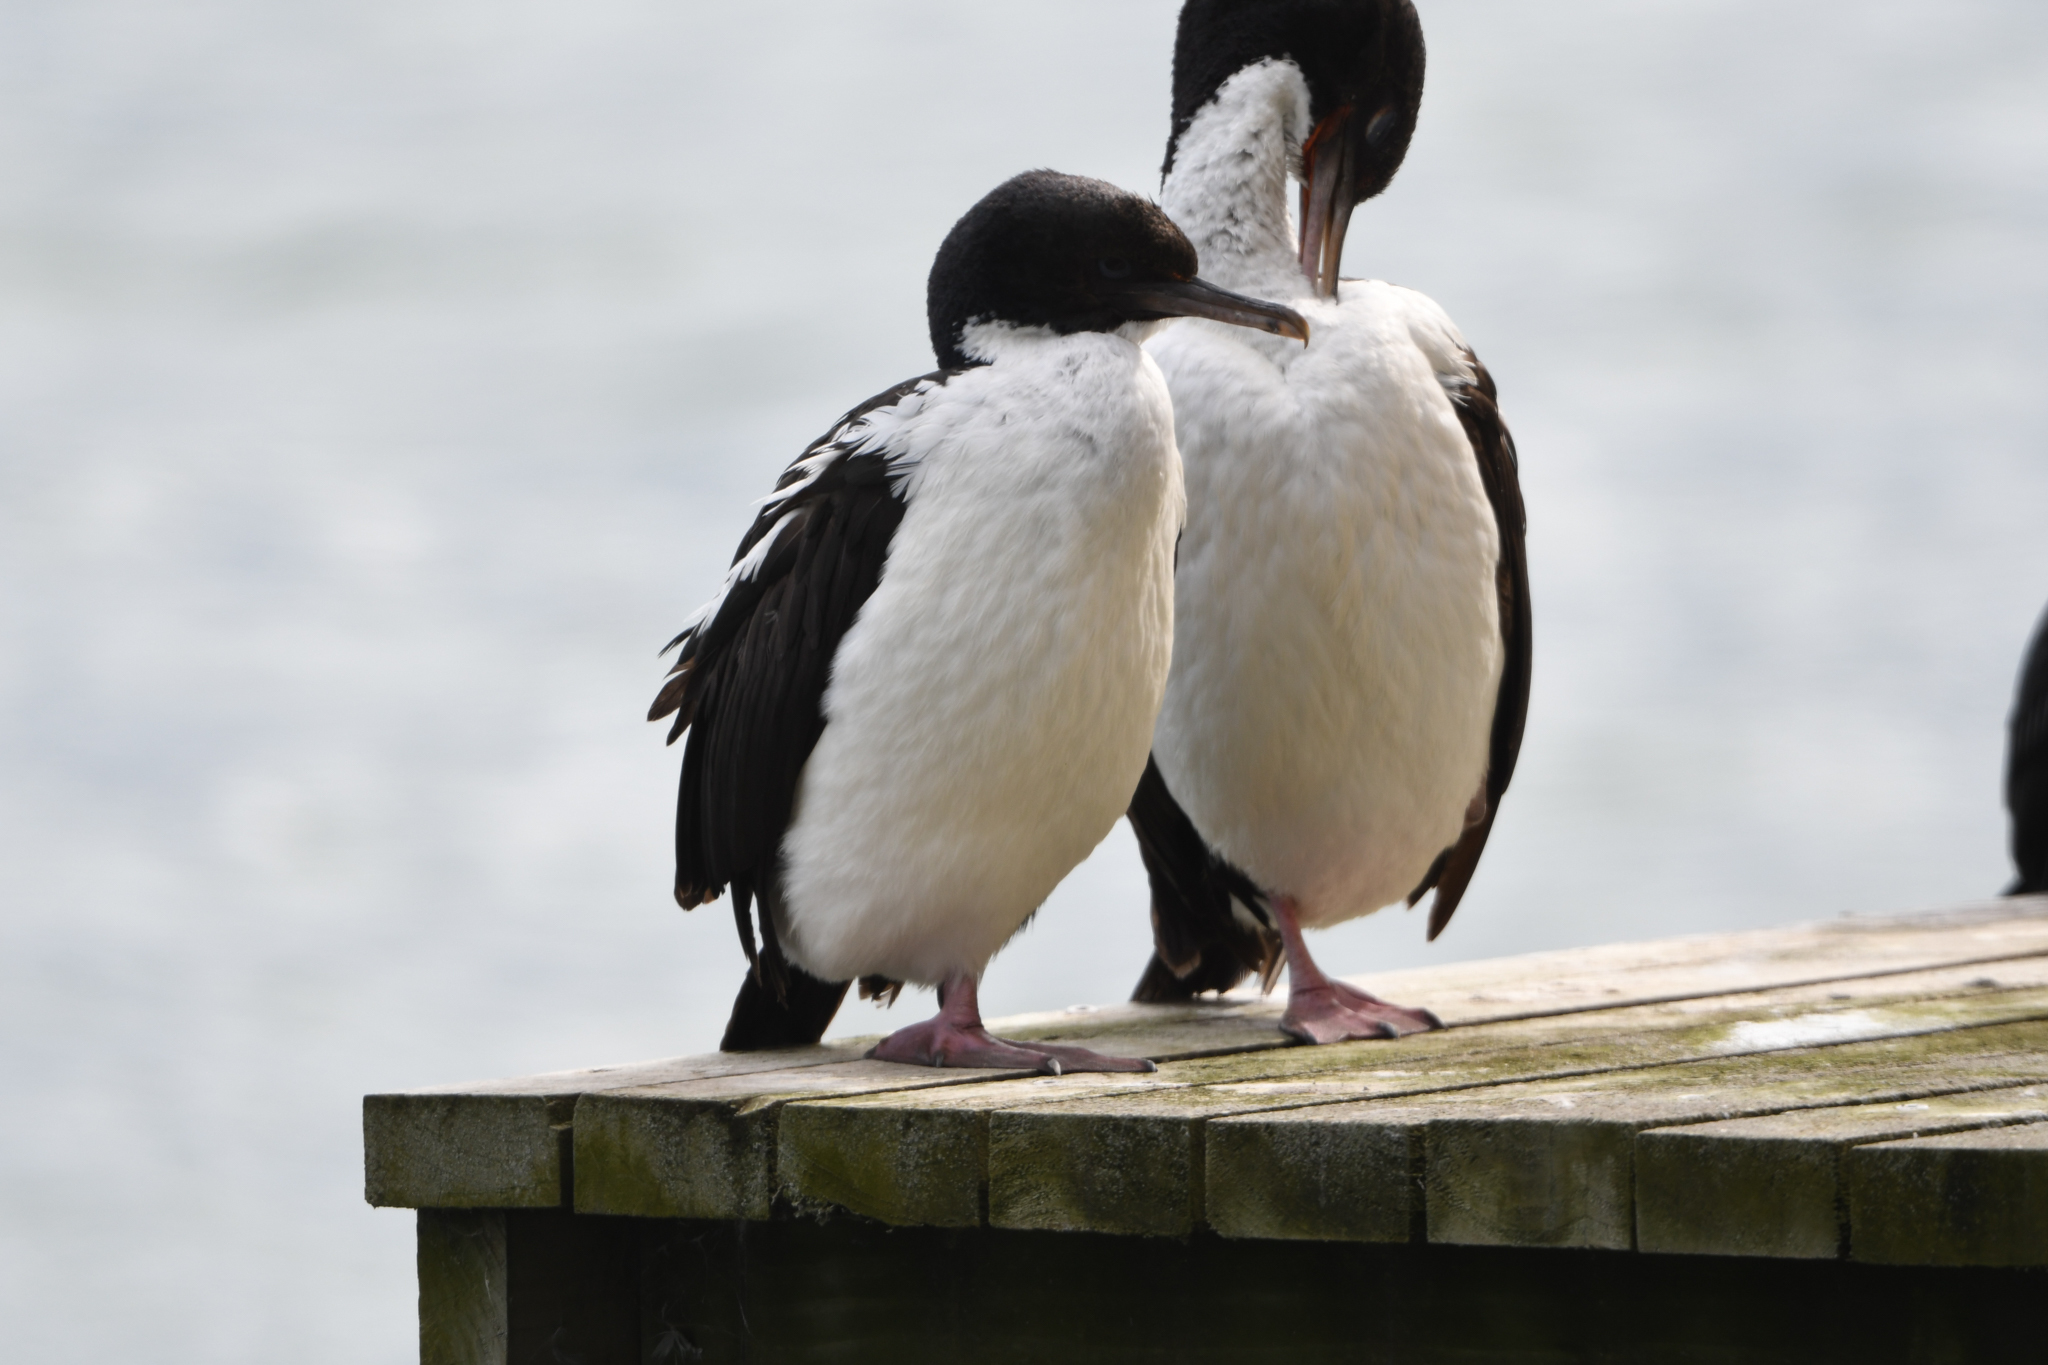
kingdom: Animalia
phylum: Chordata
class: Aves
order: Suliformes
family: Phalacrocoracidae
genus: Leucocarbo
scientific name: Leucocarbo chalconotus
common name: Stewart shag
